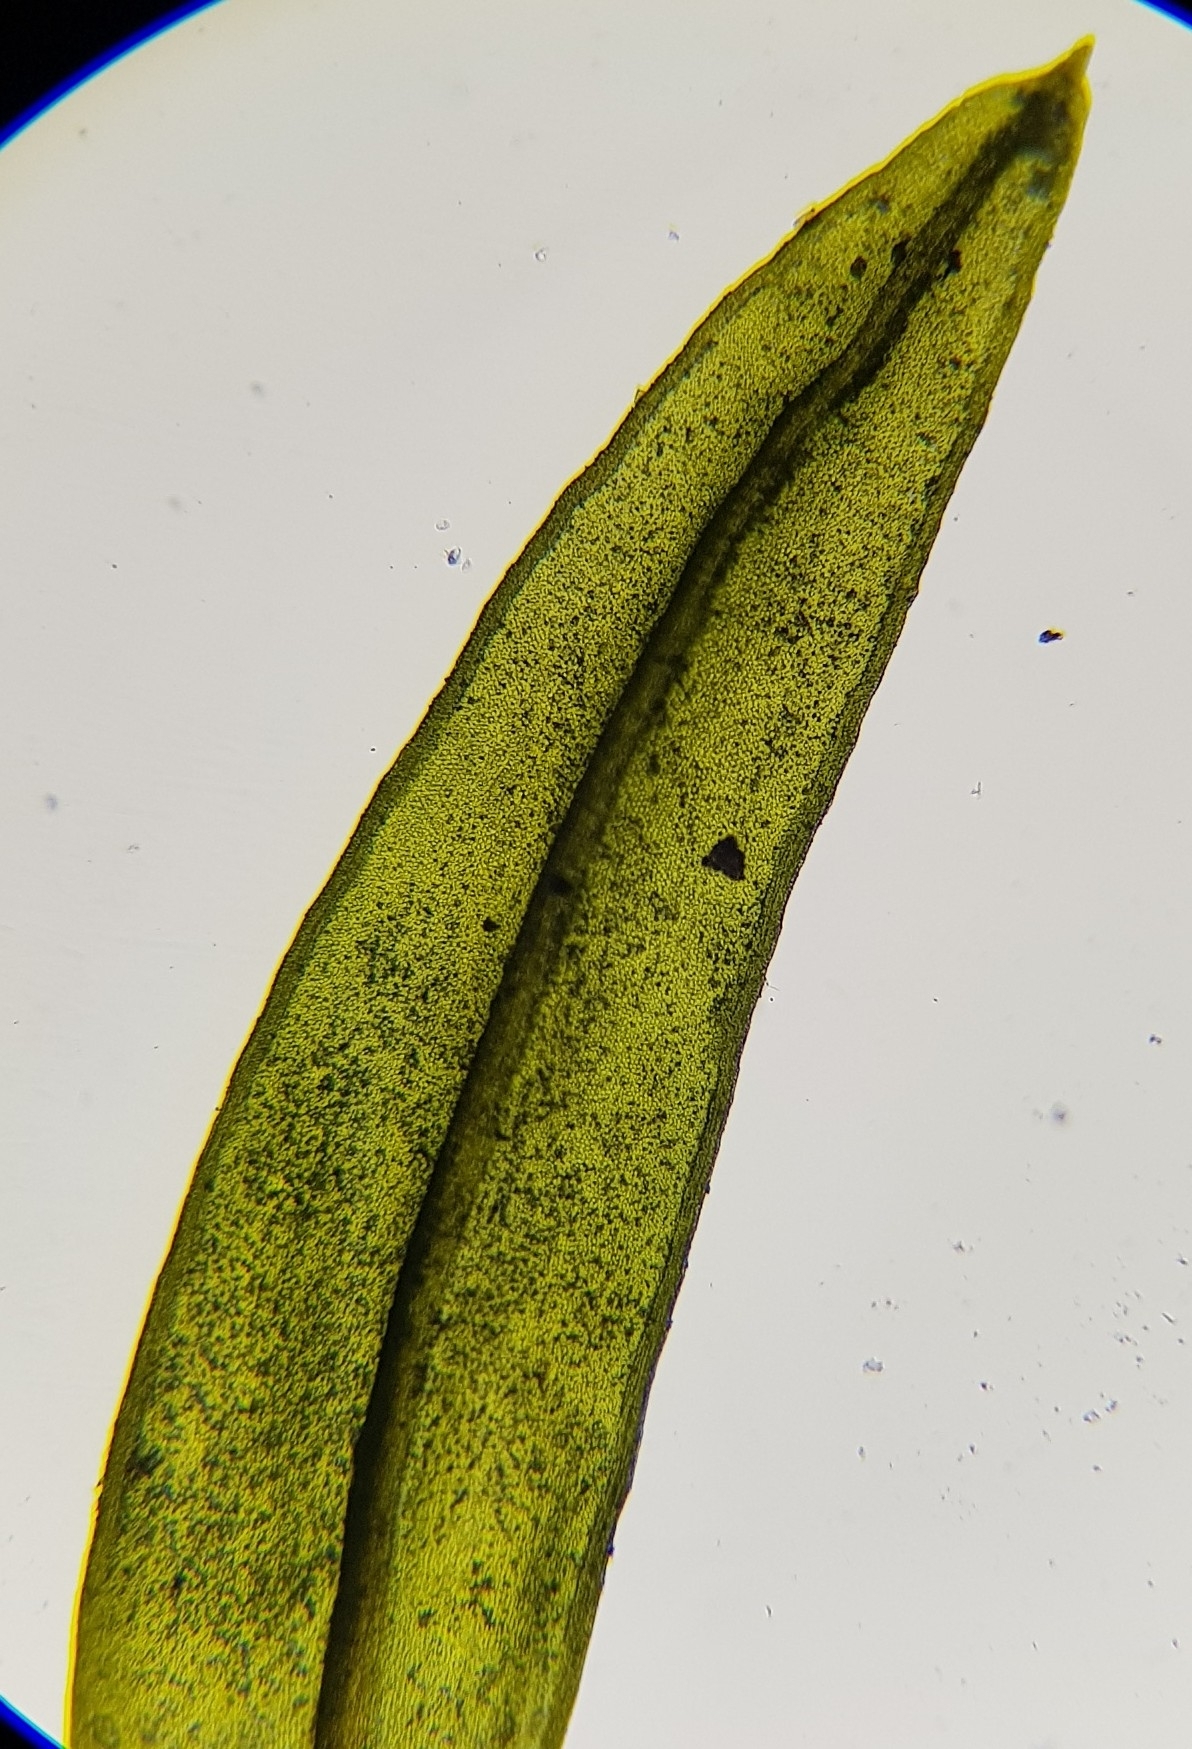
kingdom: Plantae
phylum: Bryophyta
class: Bryopsida
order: Pottiales
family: Pottiaceae
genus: Cinclidotus
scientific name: Cinclidotus fontinaloides
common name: Smaller lattice-moss
